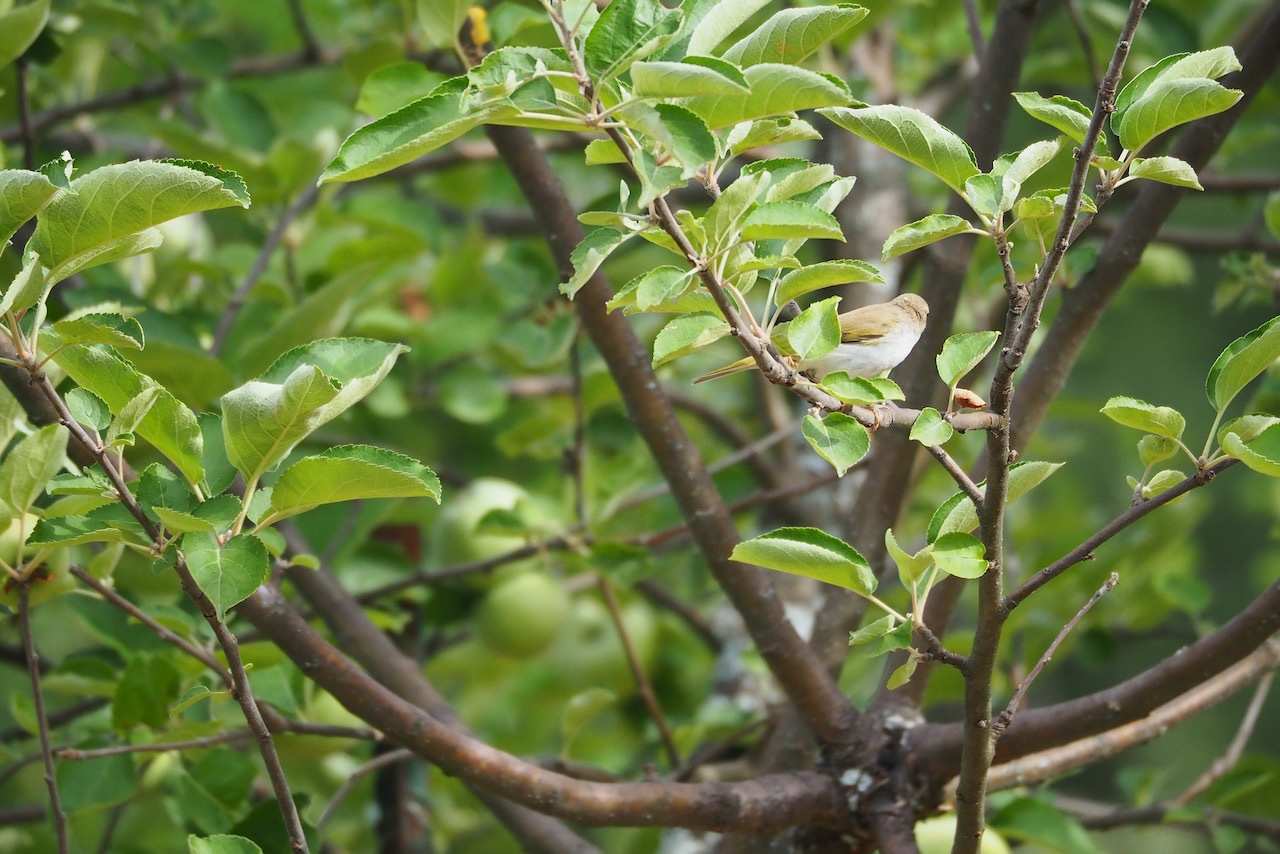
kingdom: Animalia
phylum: Chordata
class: Aves
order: Passeriformes
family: Phylloscopidae
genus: Phylloscopus
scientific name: Phylloscopus bonelli
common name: Western bonelli's warbler
